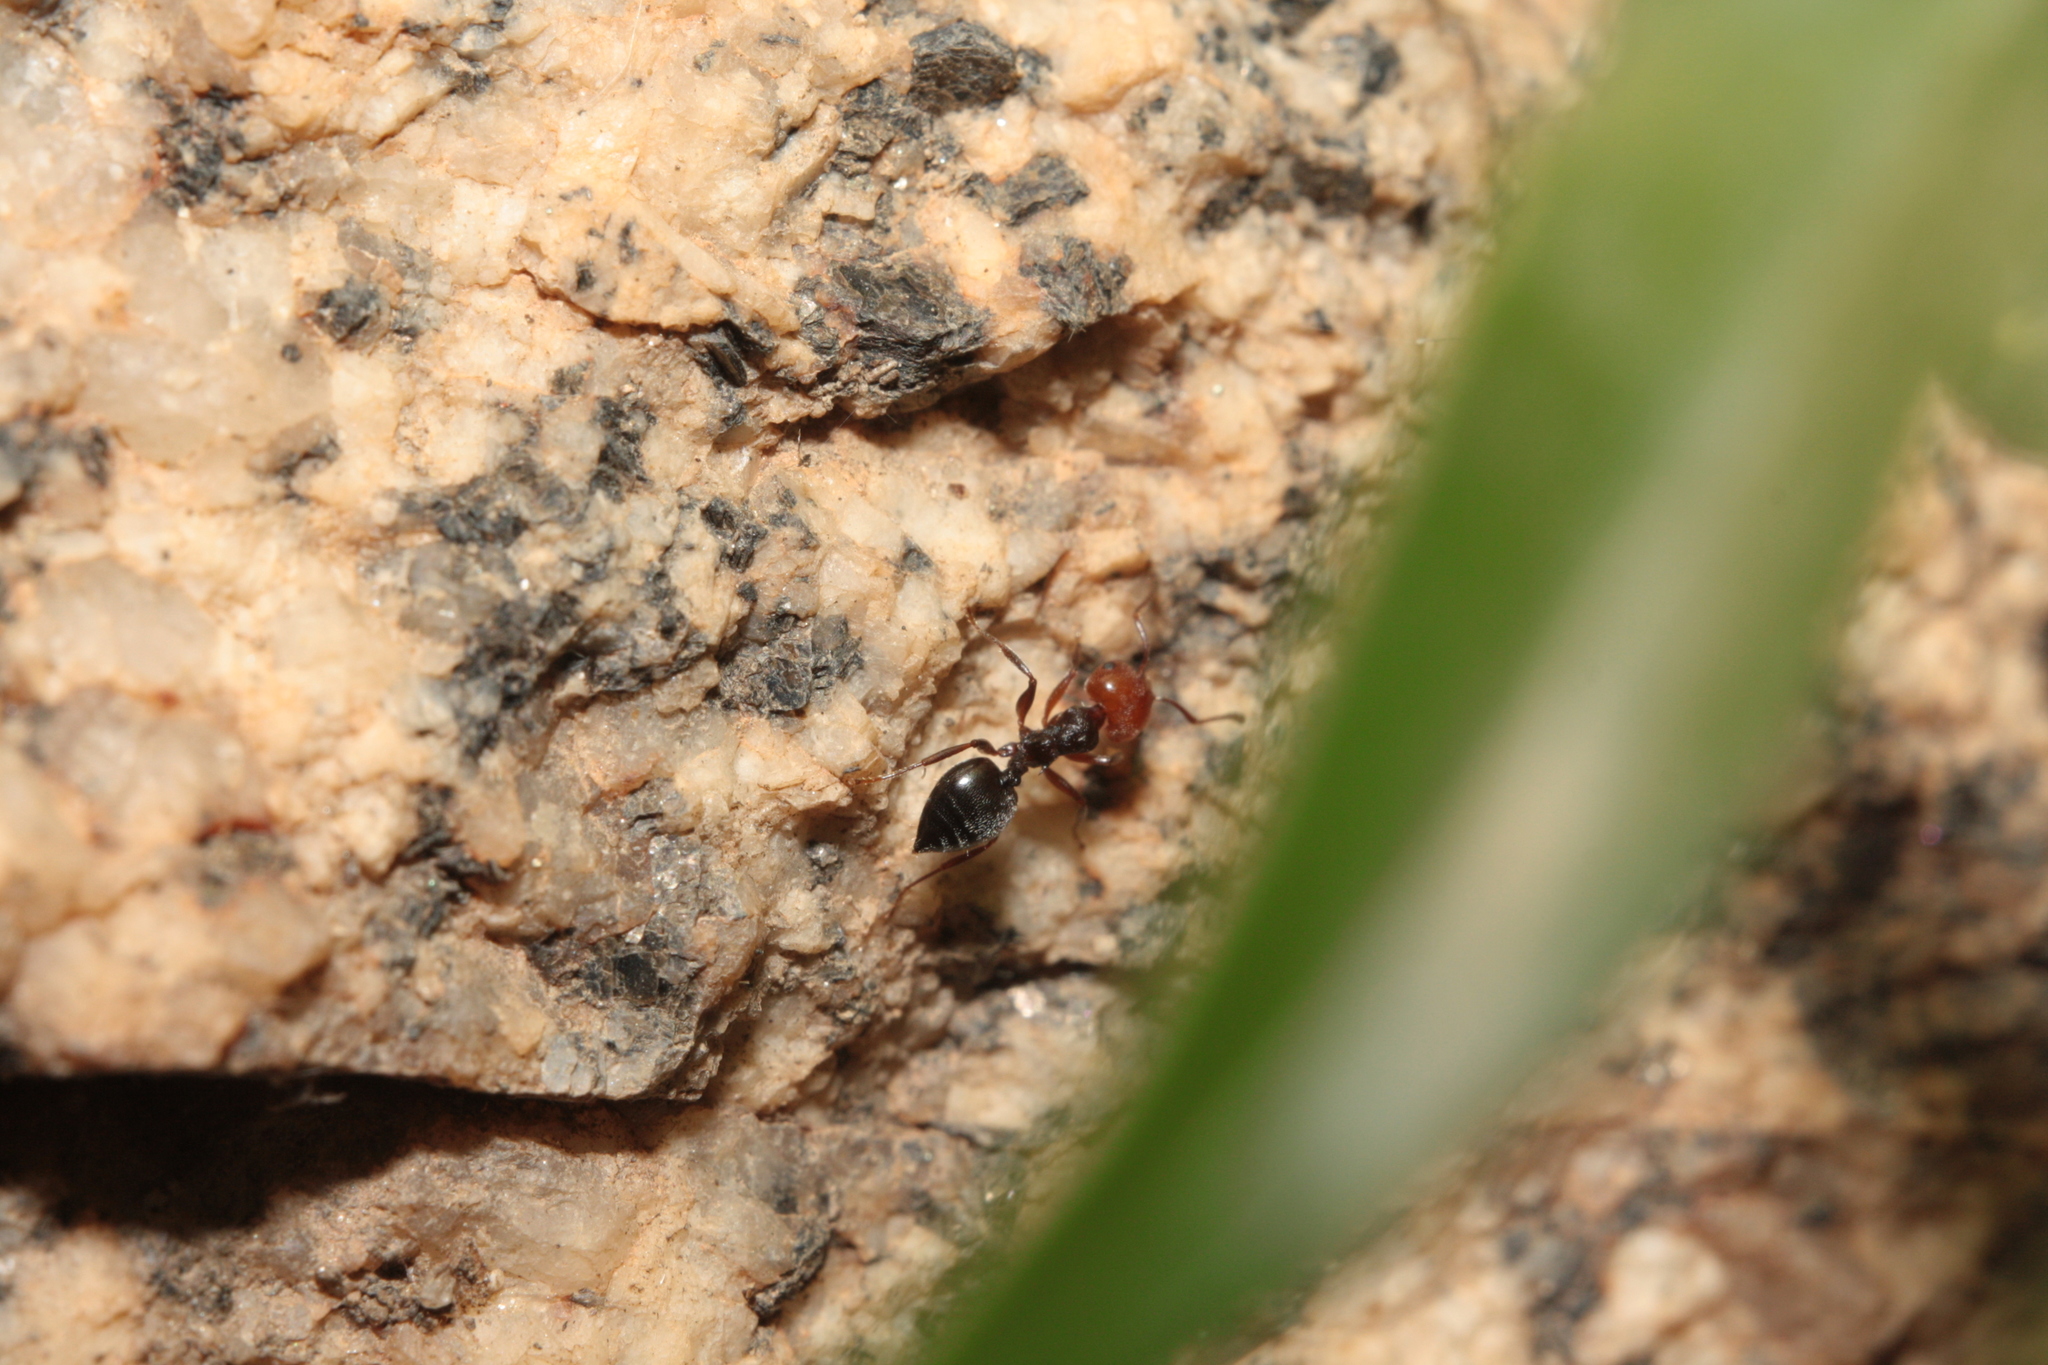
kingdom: Animalia
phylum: Arthropoda
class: Insecta
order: Hymenoptera
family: Formicidae
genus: Crematogaster
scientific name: Crematogaster scutellaris
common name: Fourmi du liège
